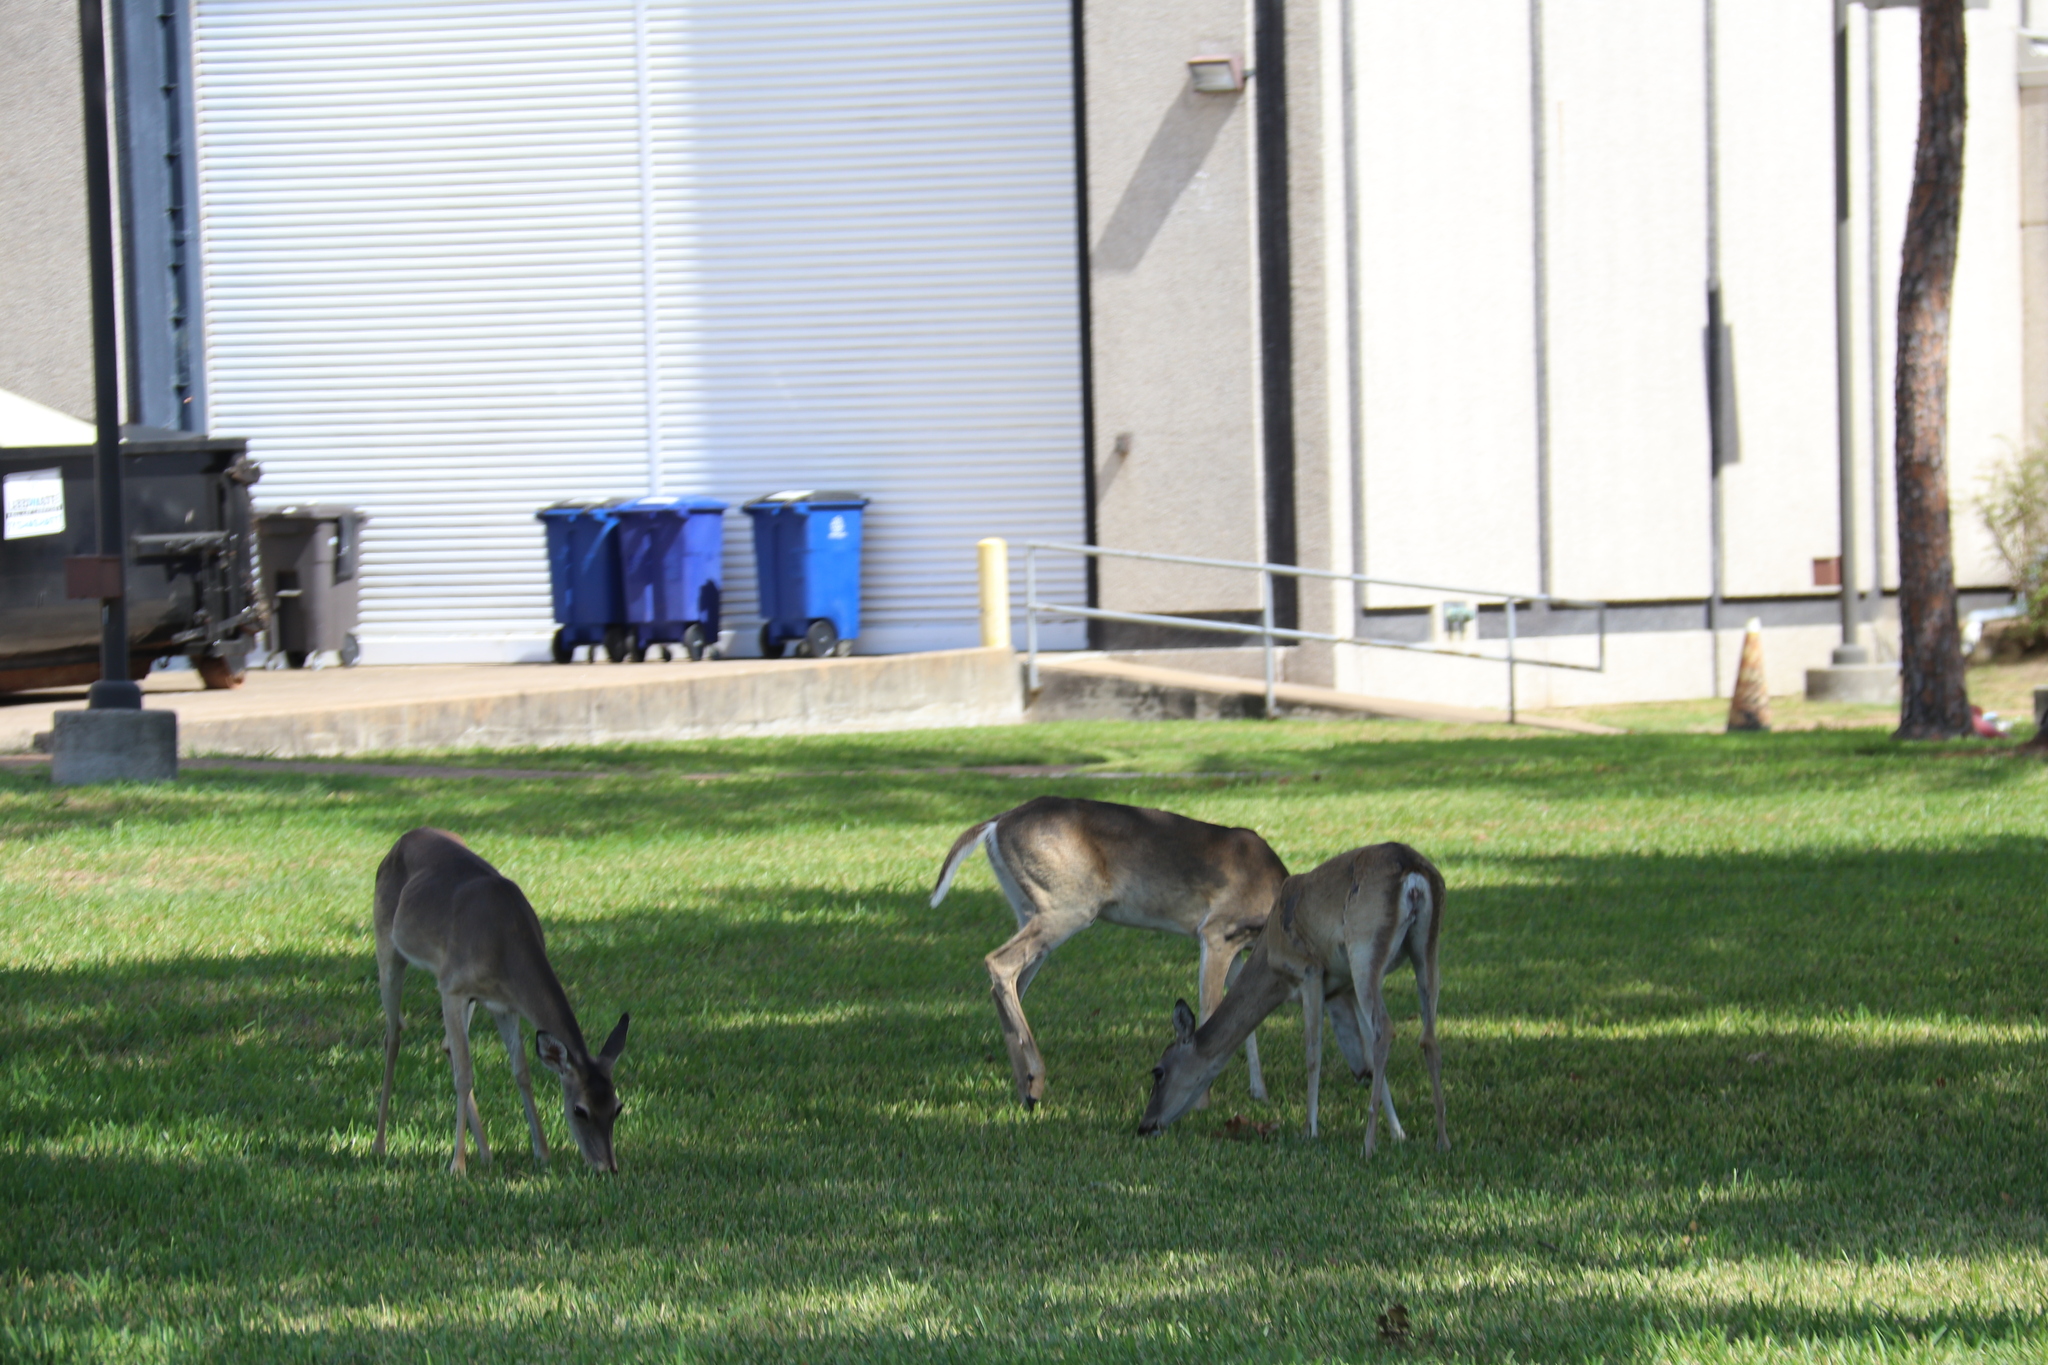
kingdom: Animalia
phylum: Chordata
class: Mammalia
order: Artiodactyla
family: Cervidae
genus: Odocoileus
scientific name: Odocoileus virginianus
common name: White-tailed deer
